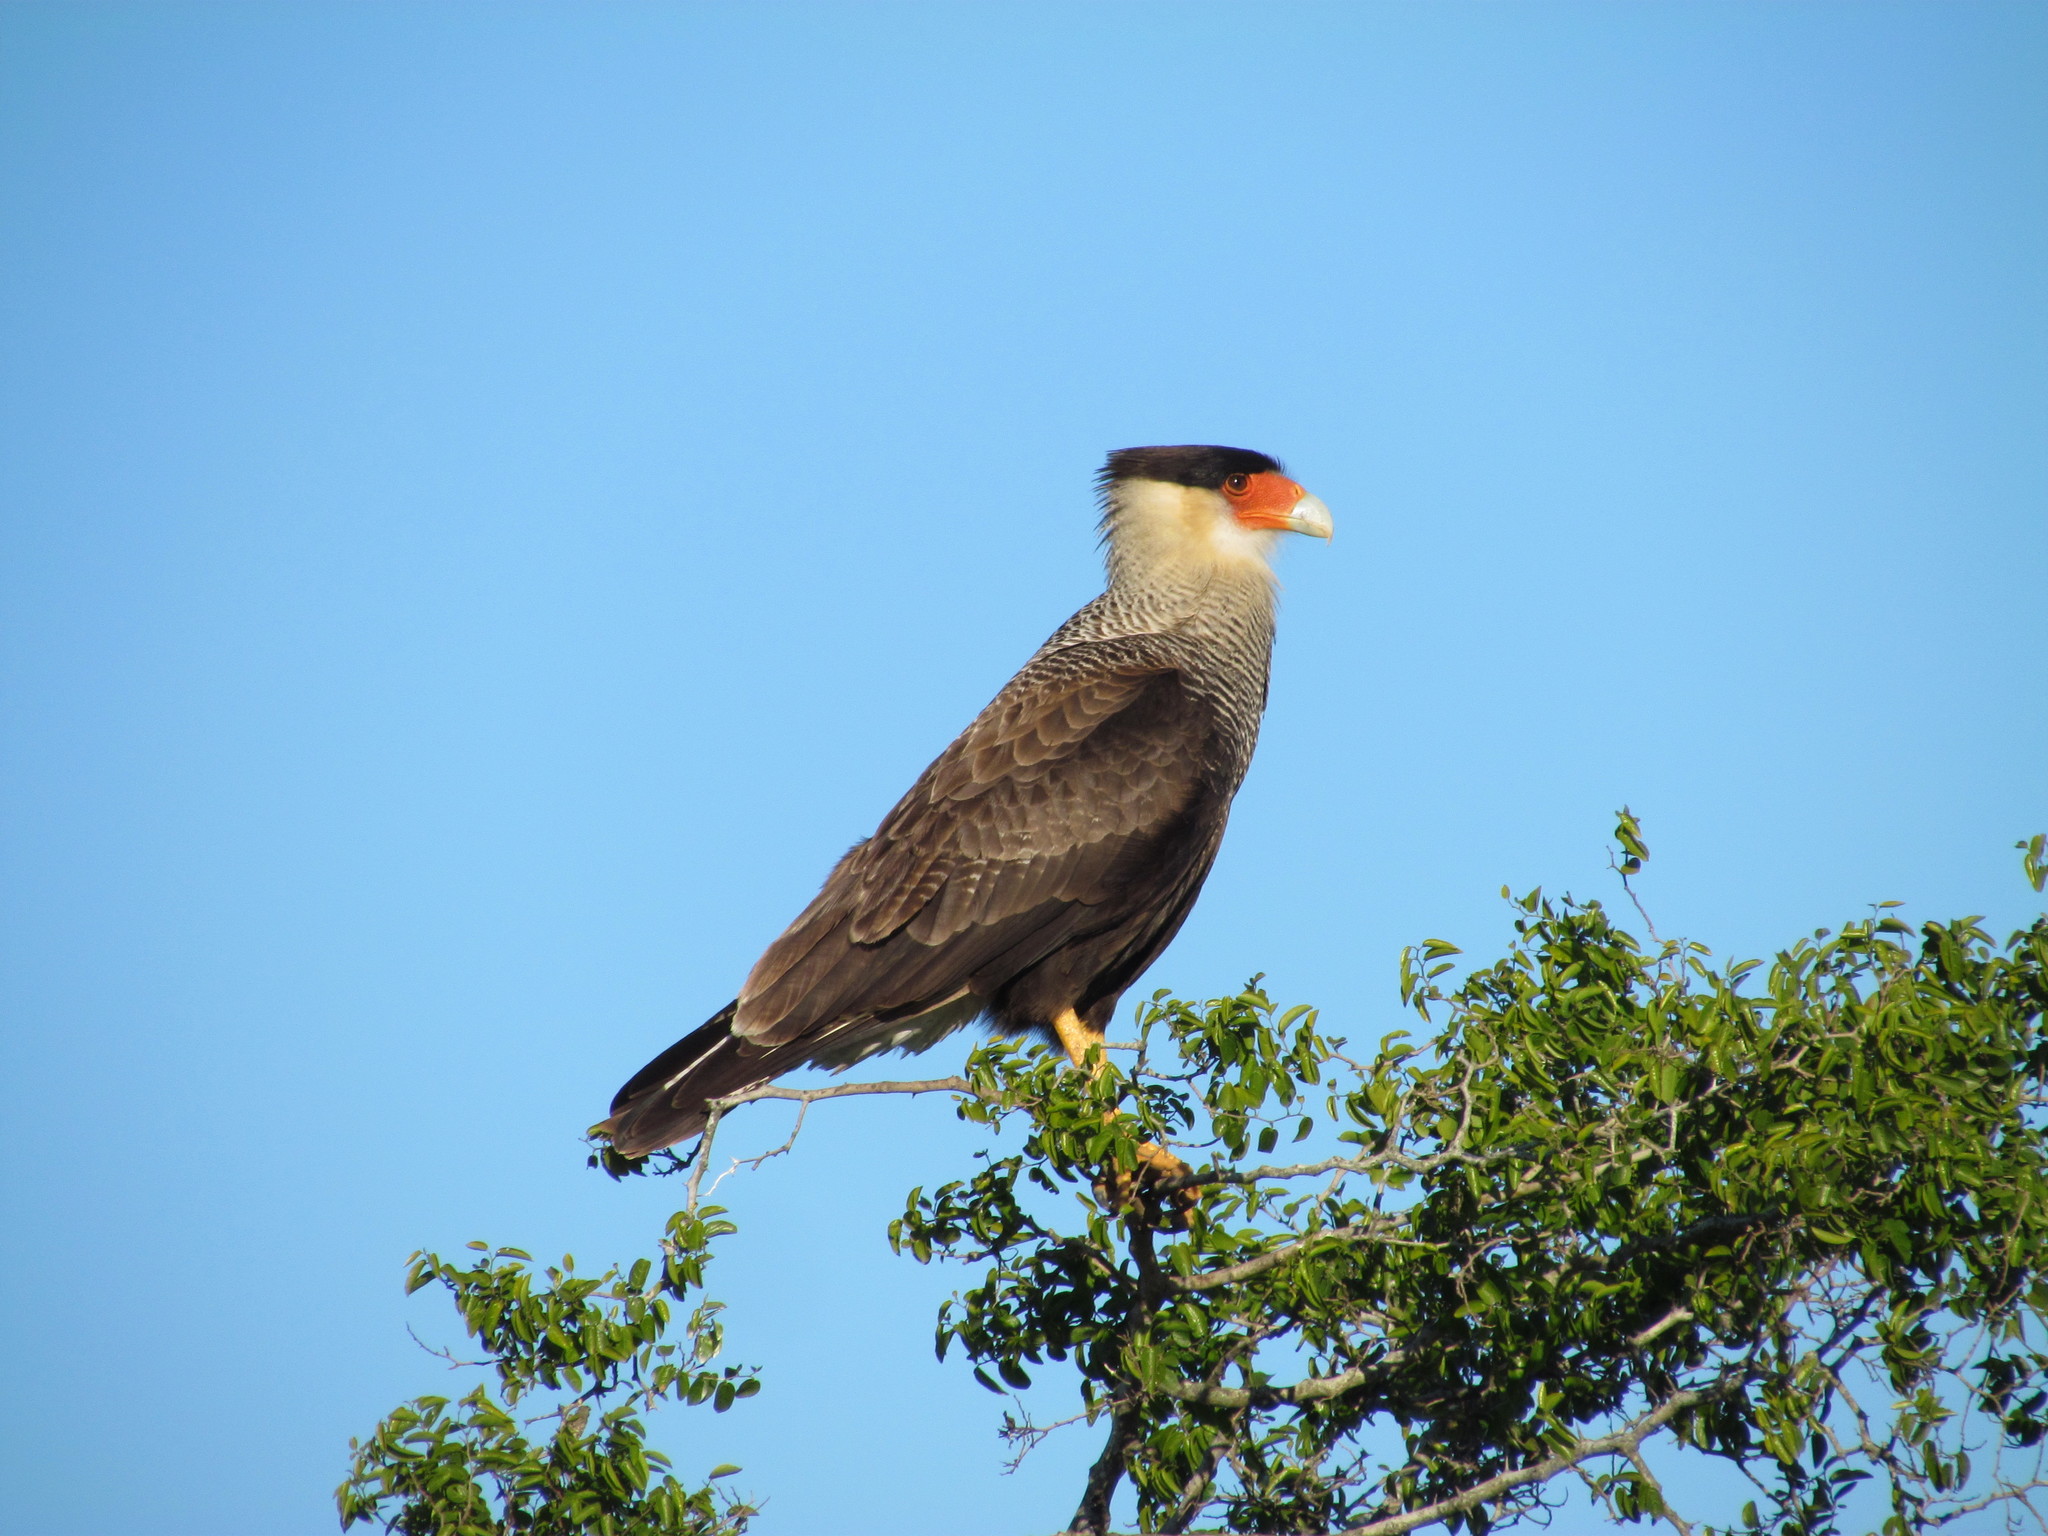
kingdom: Animalia
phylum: Chordata
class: Aves
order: Falconiformes
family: Falconidae
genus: Caracara
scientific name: Caracara plancus
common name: Southern caracara
